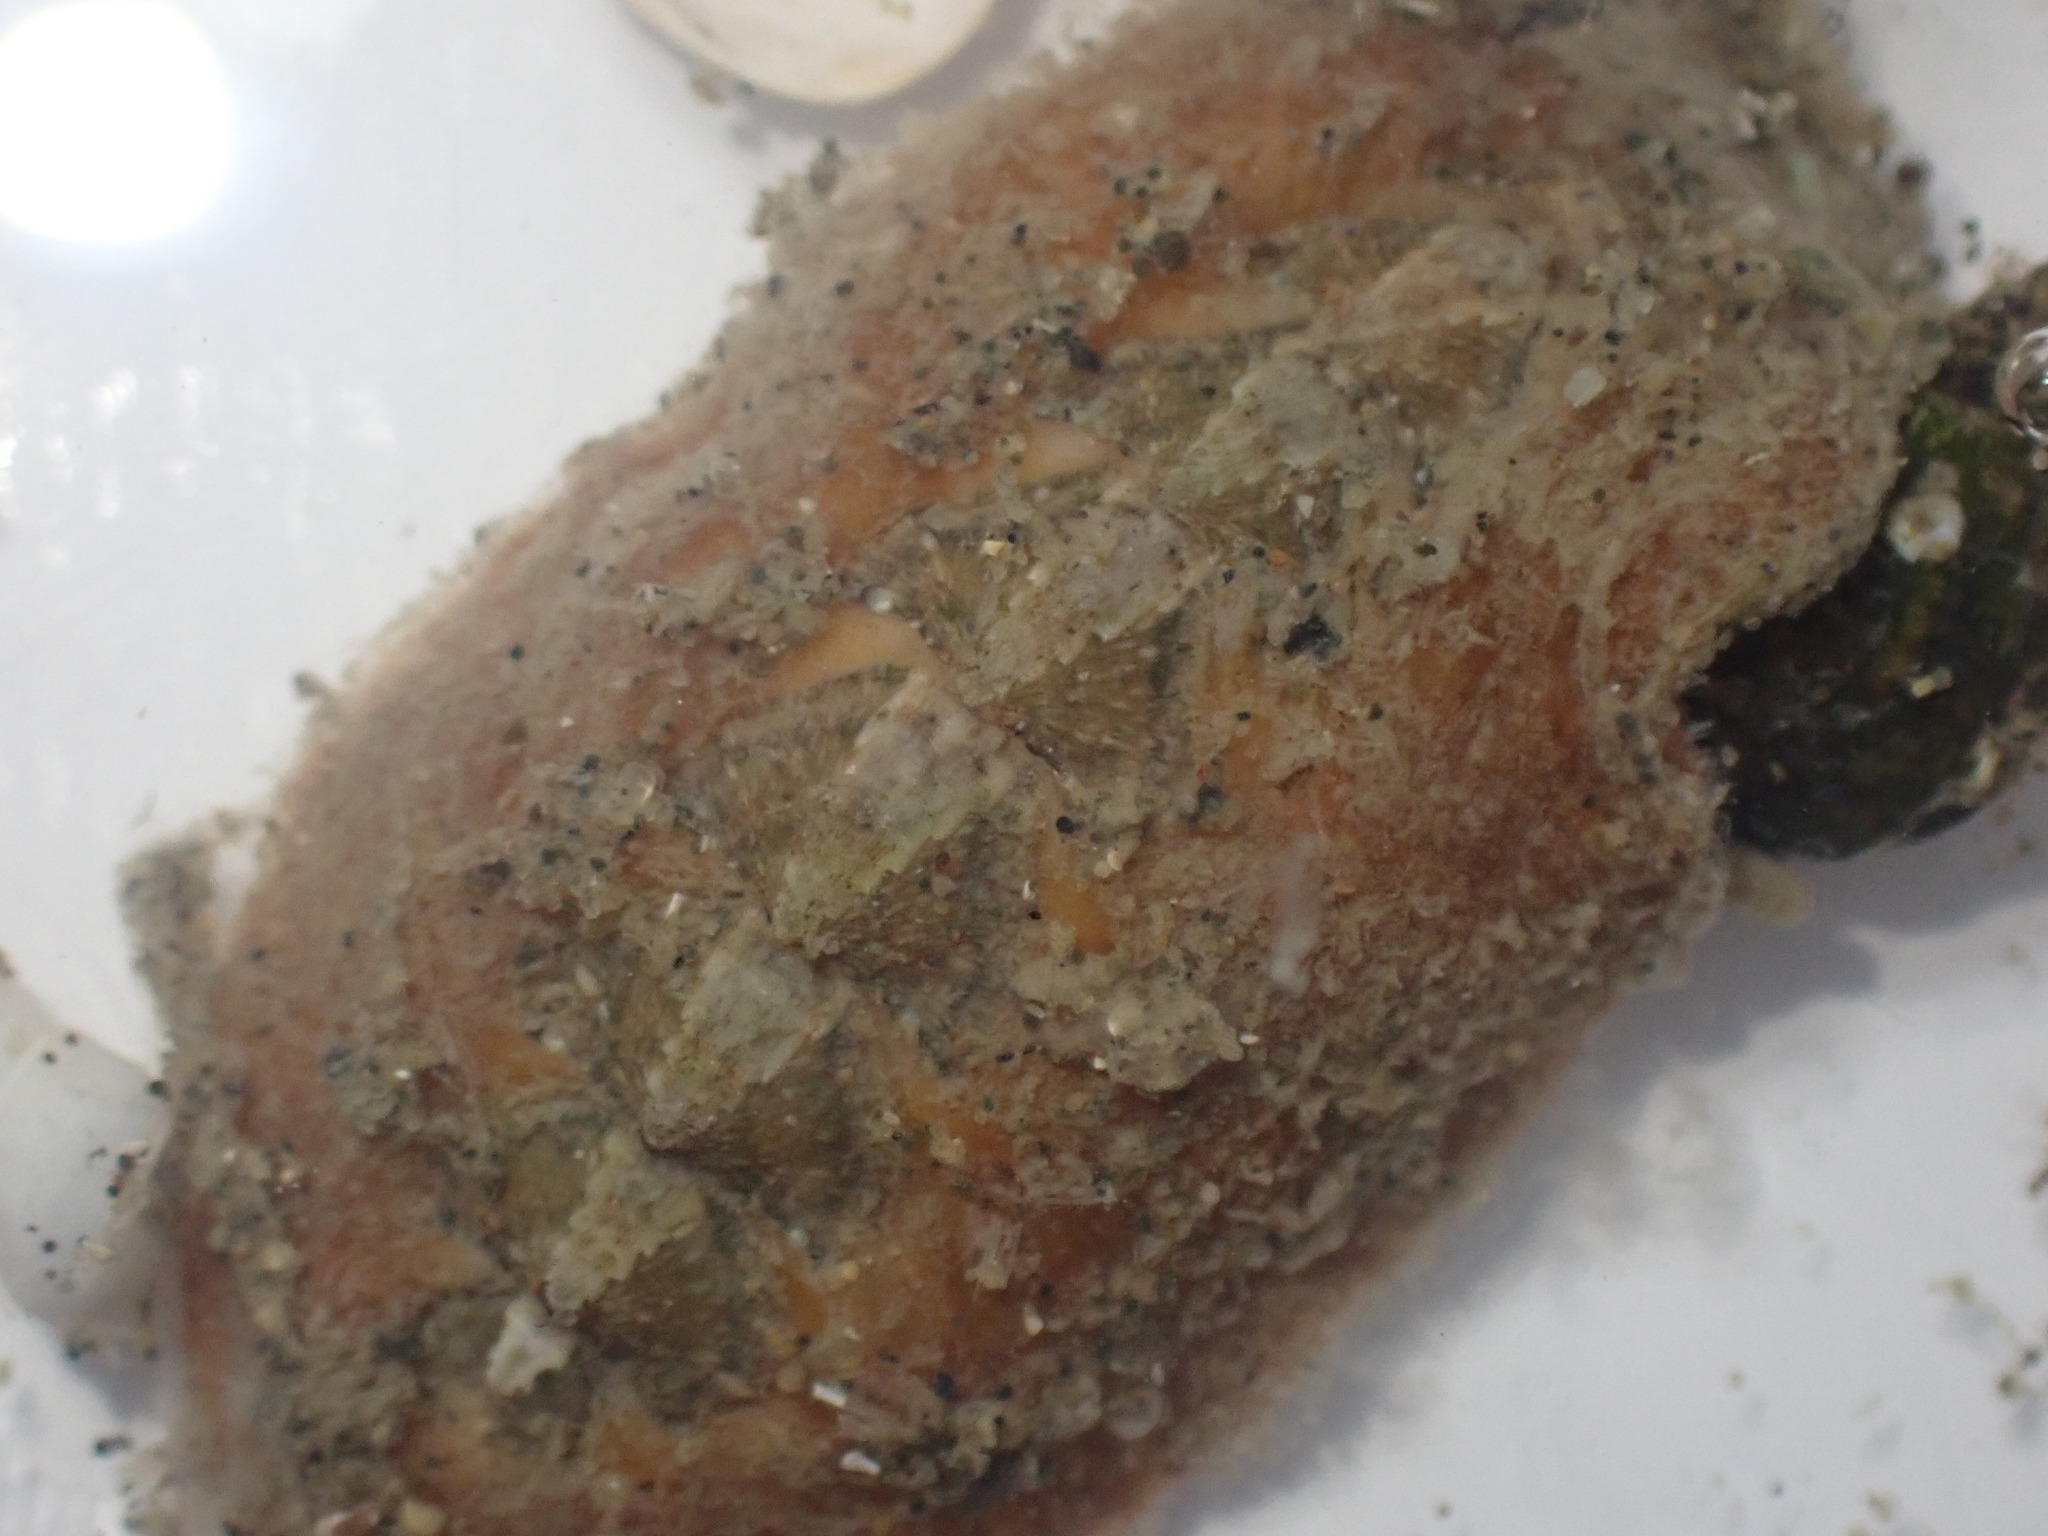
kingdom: Animalia
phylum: Mollusca
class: Polyplacophora
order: Chitonida
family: Acanthochitonidae
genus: Notoplax
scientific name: Notoplax mariae
